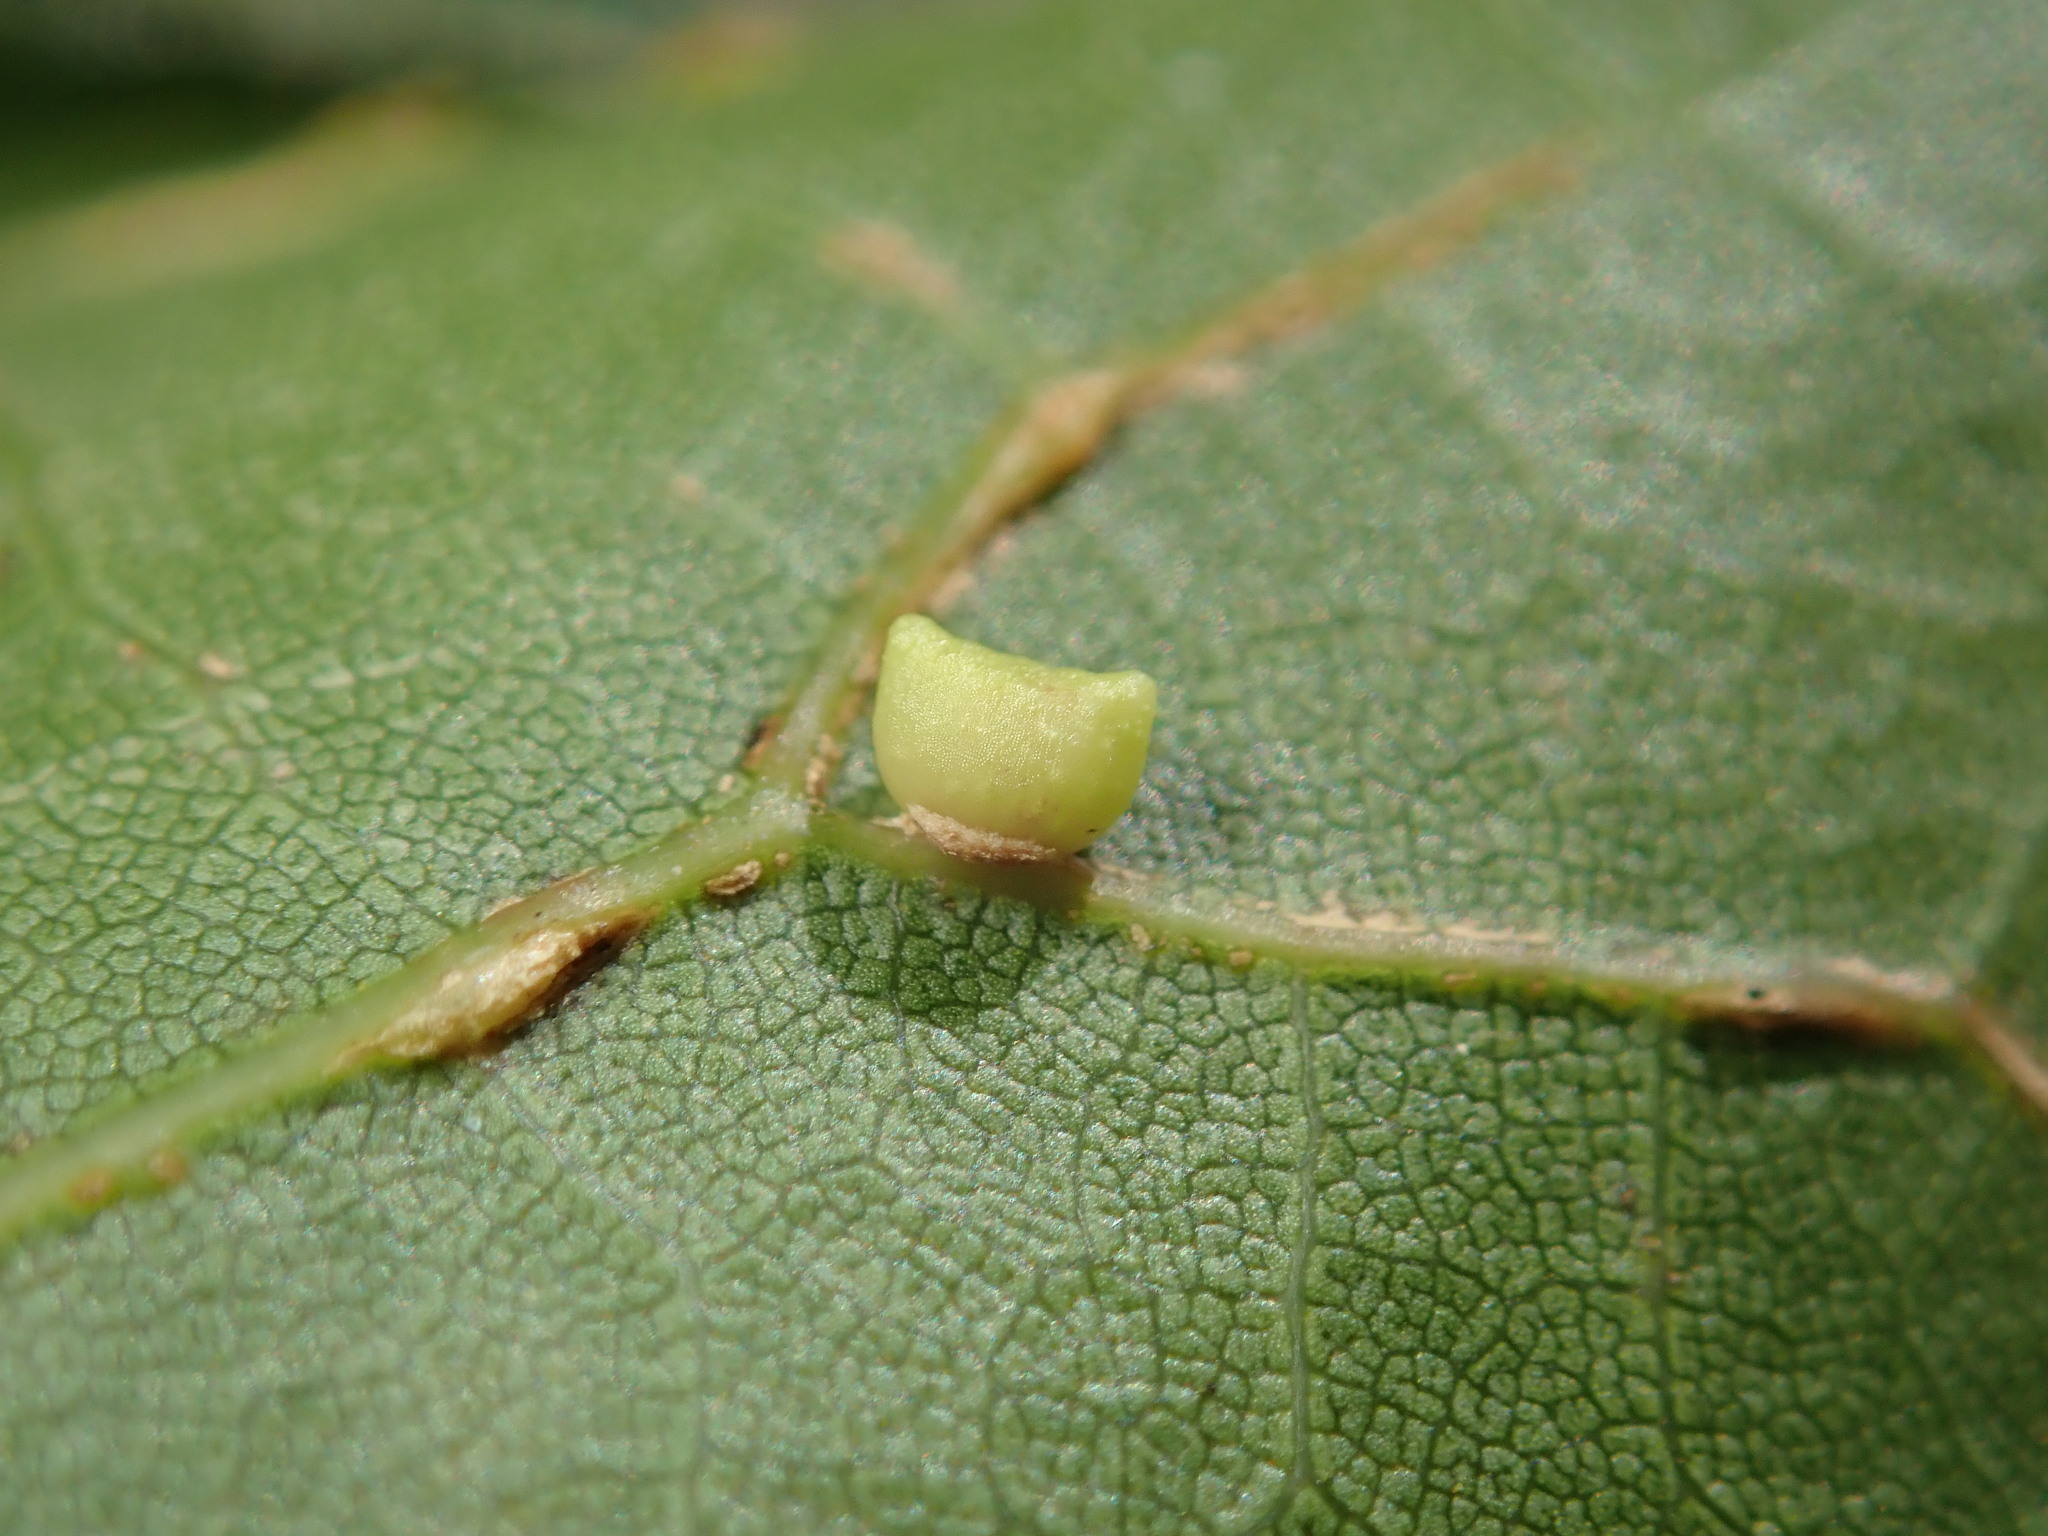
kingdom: Animalia
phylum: Arthropoda
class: Insecta
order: Hymenoptera
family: Cynipidae
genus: Dryocosmus
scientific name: Dryocosmus
